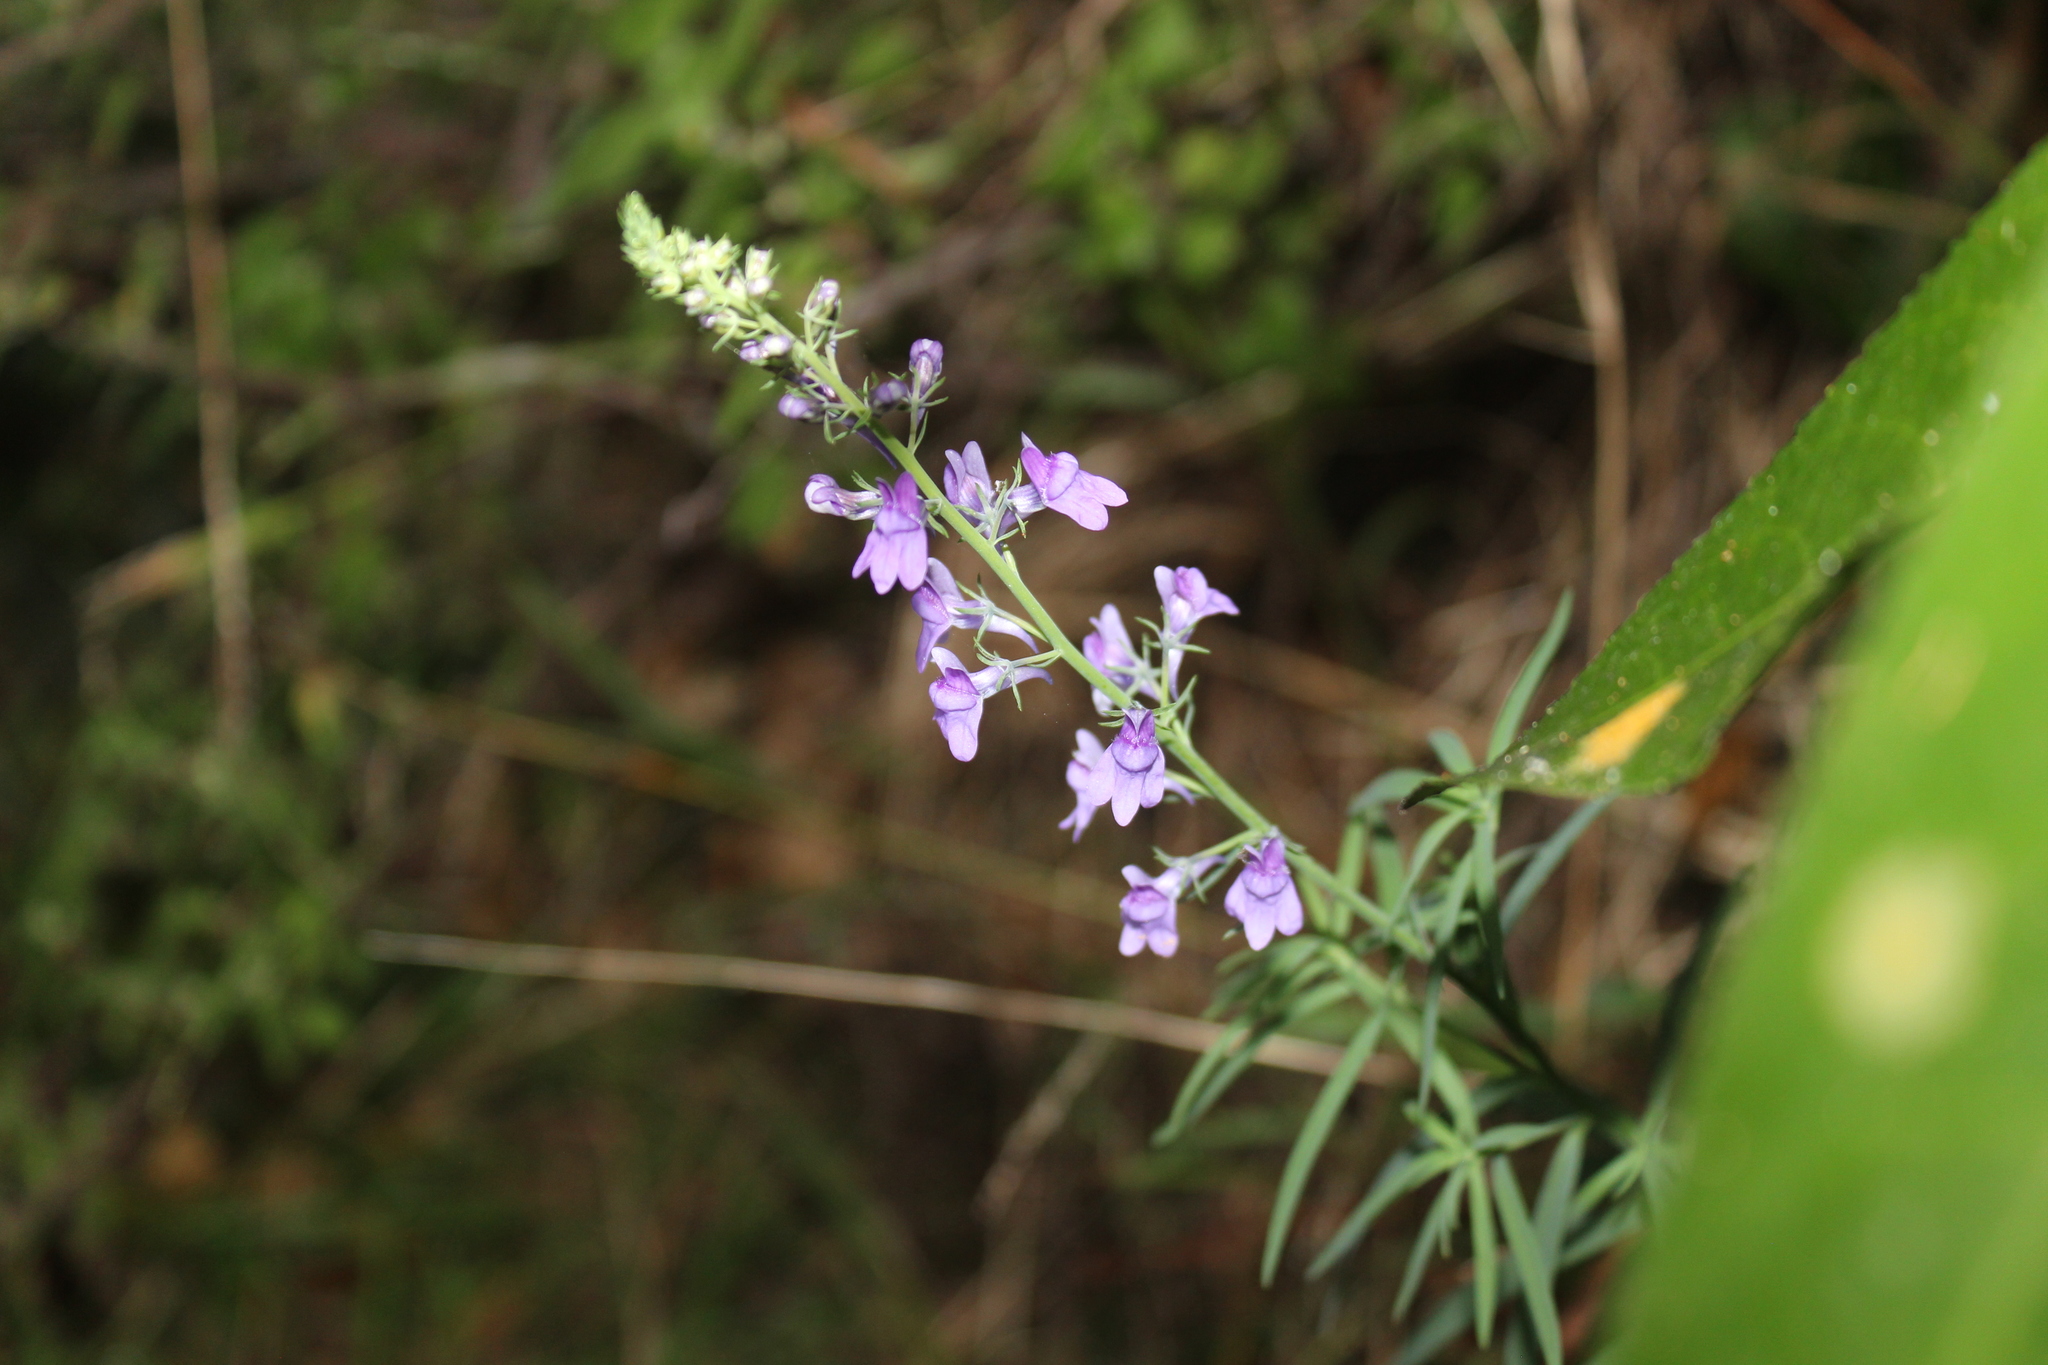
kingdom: Plantae
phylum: Tracheophyta
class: Magnoliopsida
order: Lamiales
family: Plantaginaceae
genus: Linaria
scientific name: Linaria purpurea
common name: Purple toadflax
